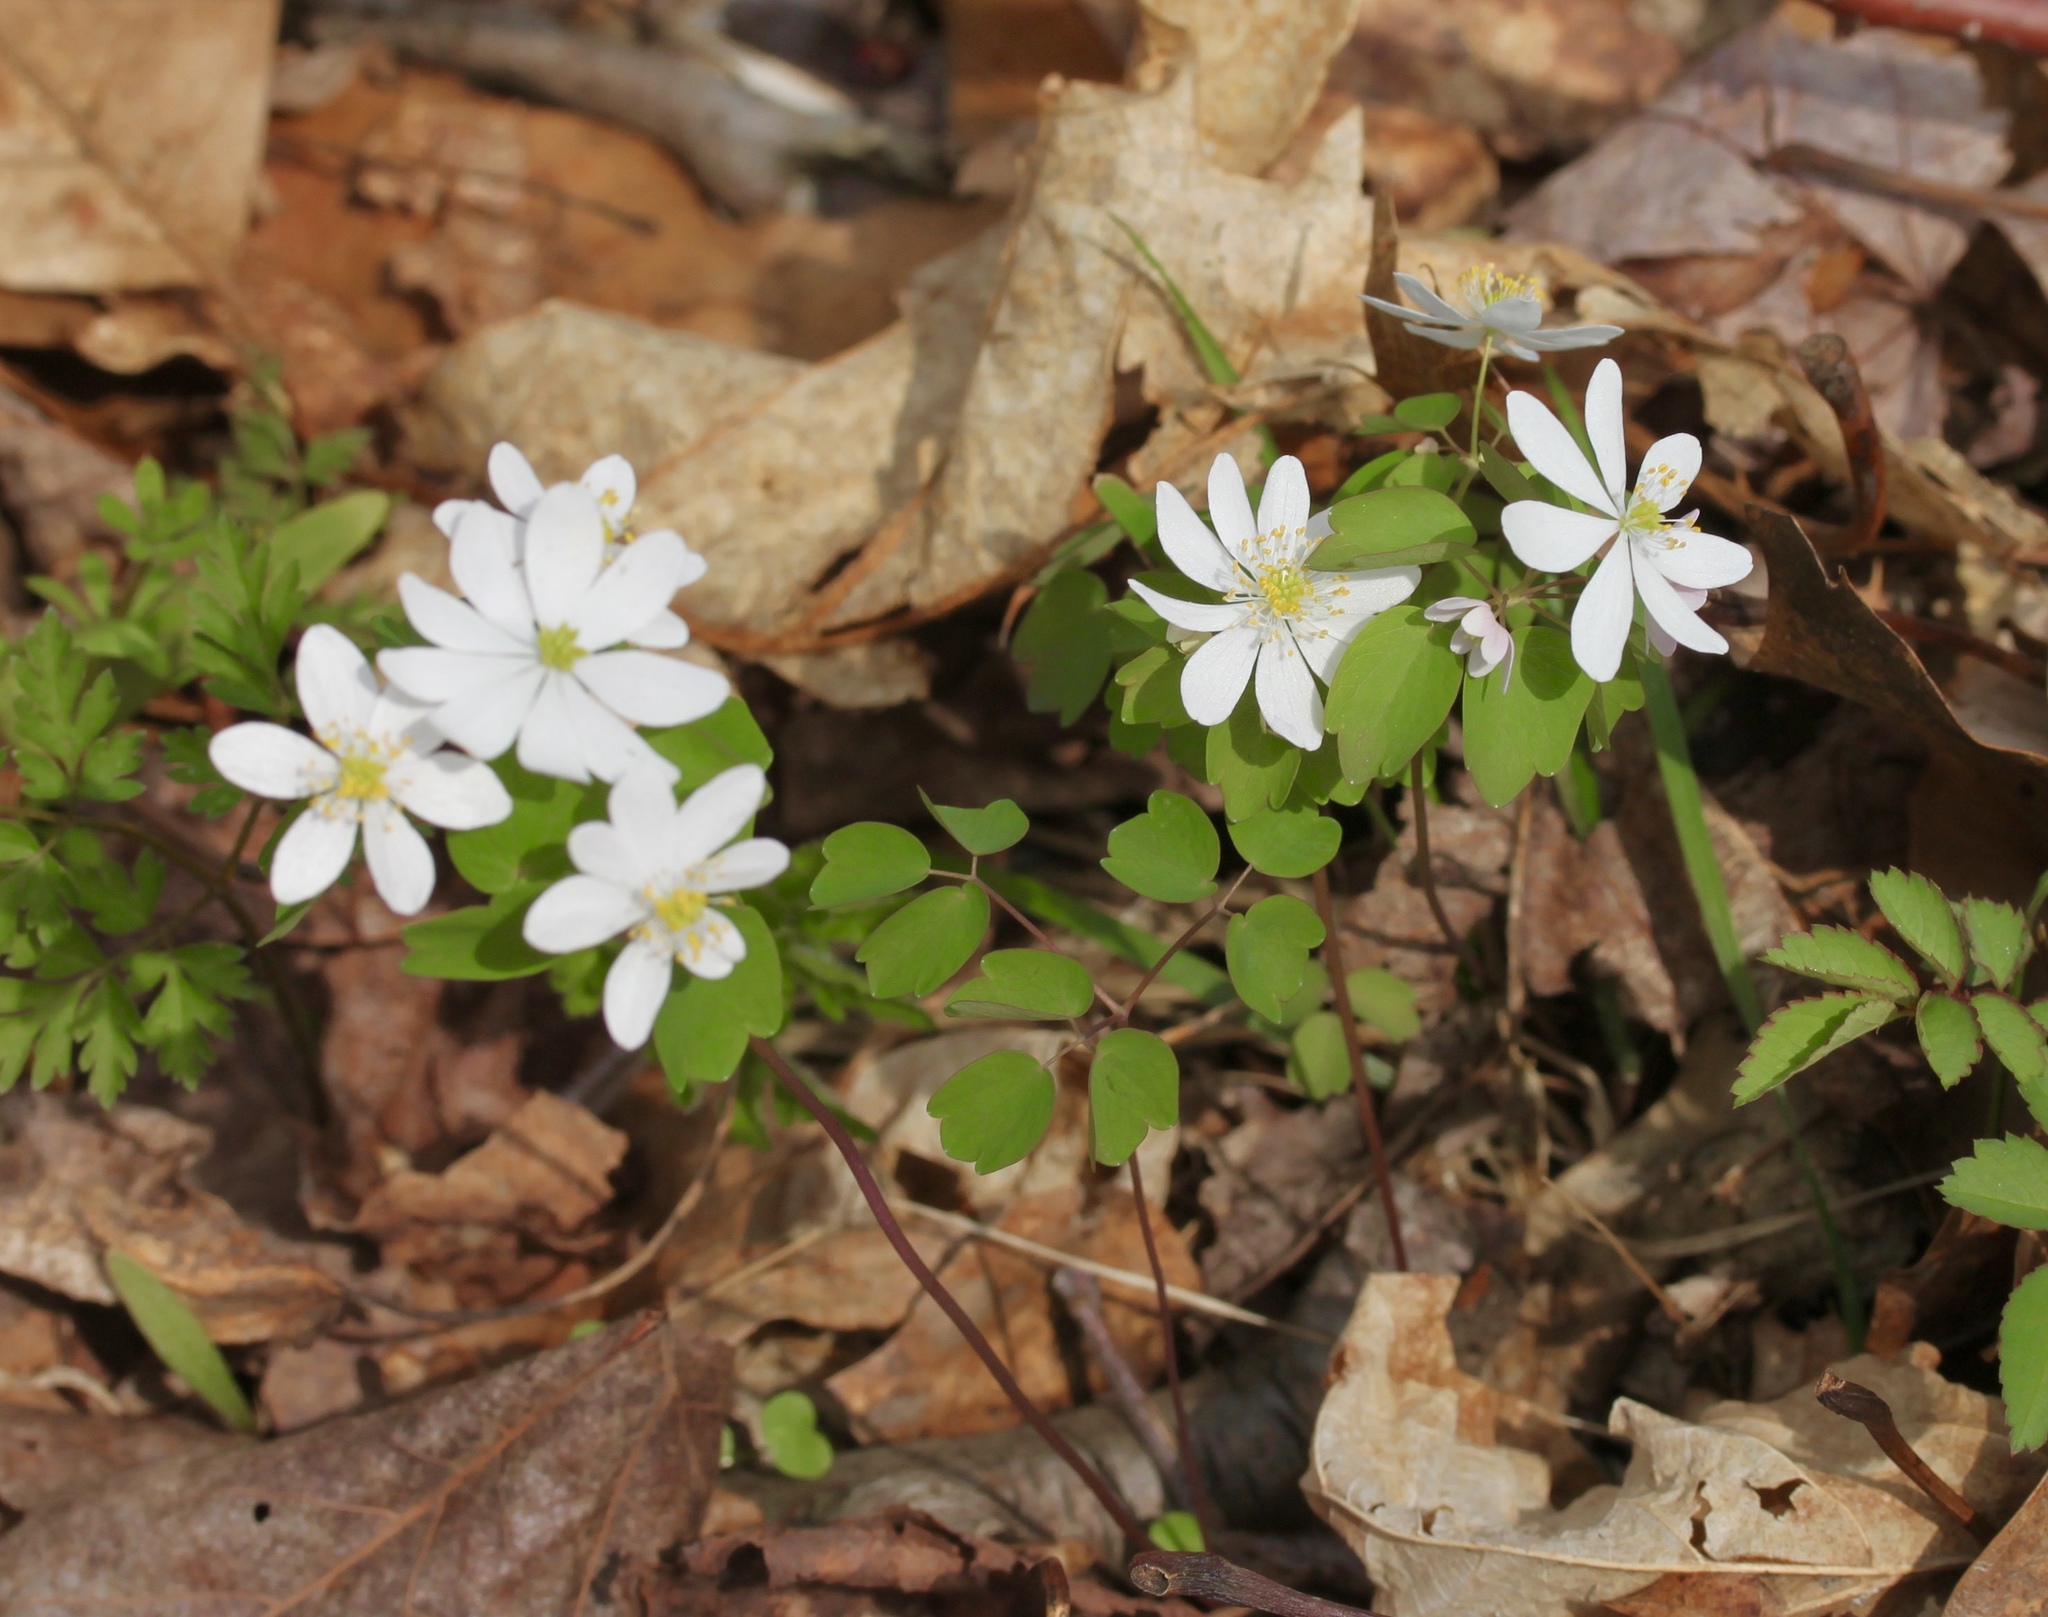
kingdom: Plantae
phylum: Tracheophyta
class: Magnoliopsida
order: Ranunculales
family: Ranunculaceae
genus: Thalictrum
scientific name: Thalictrum thalictroides
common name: Rue-anemone
